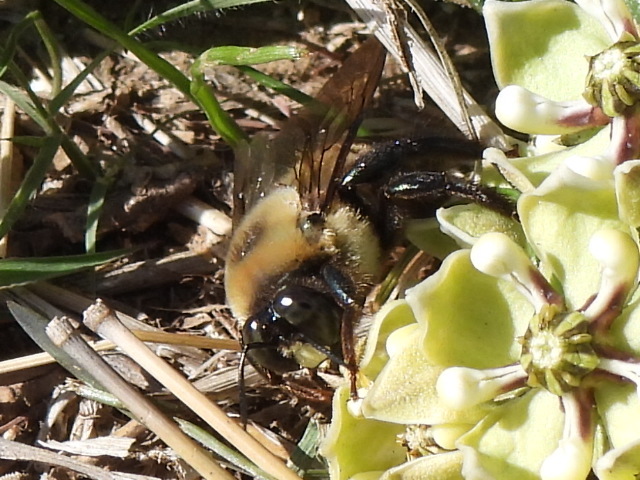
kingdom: Animalia
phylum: Arthropoda
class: Insecta
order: Hymenoptera
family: Apidae
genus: Xylocopa
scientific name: Xylocopa virginica
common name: Carpenter bee
